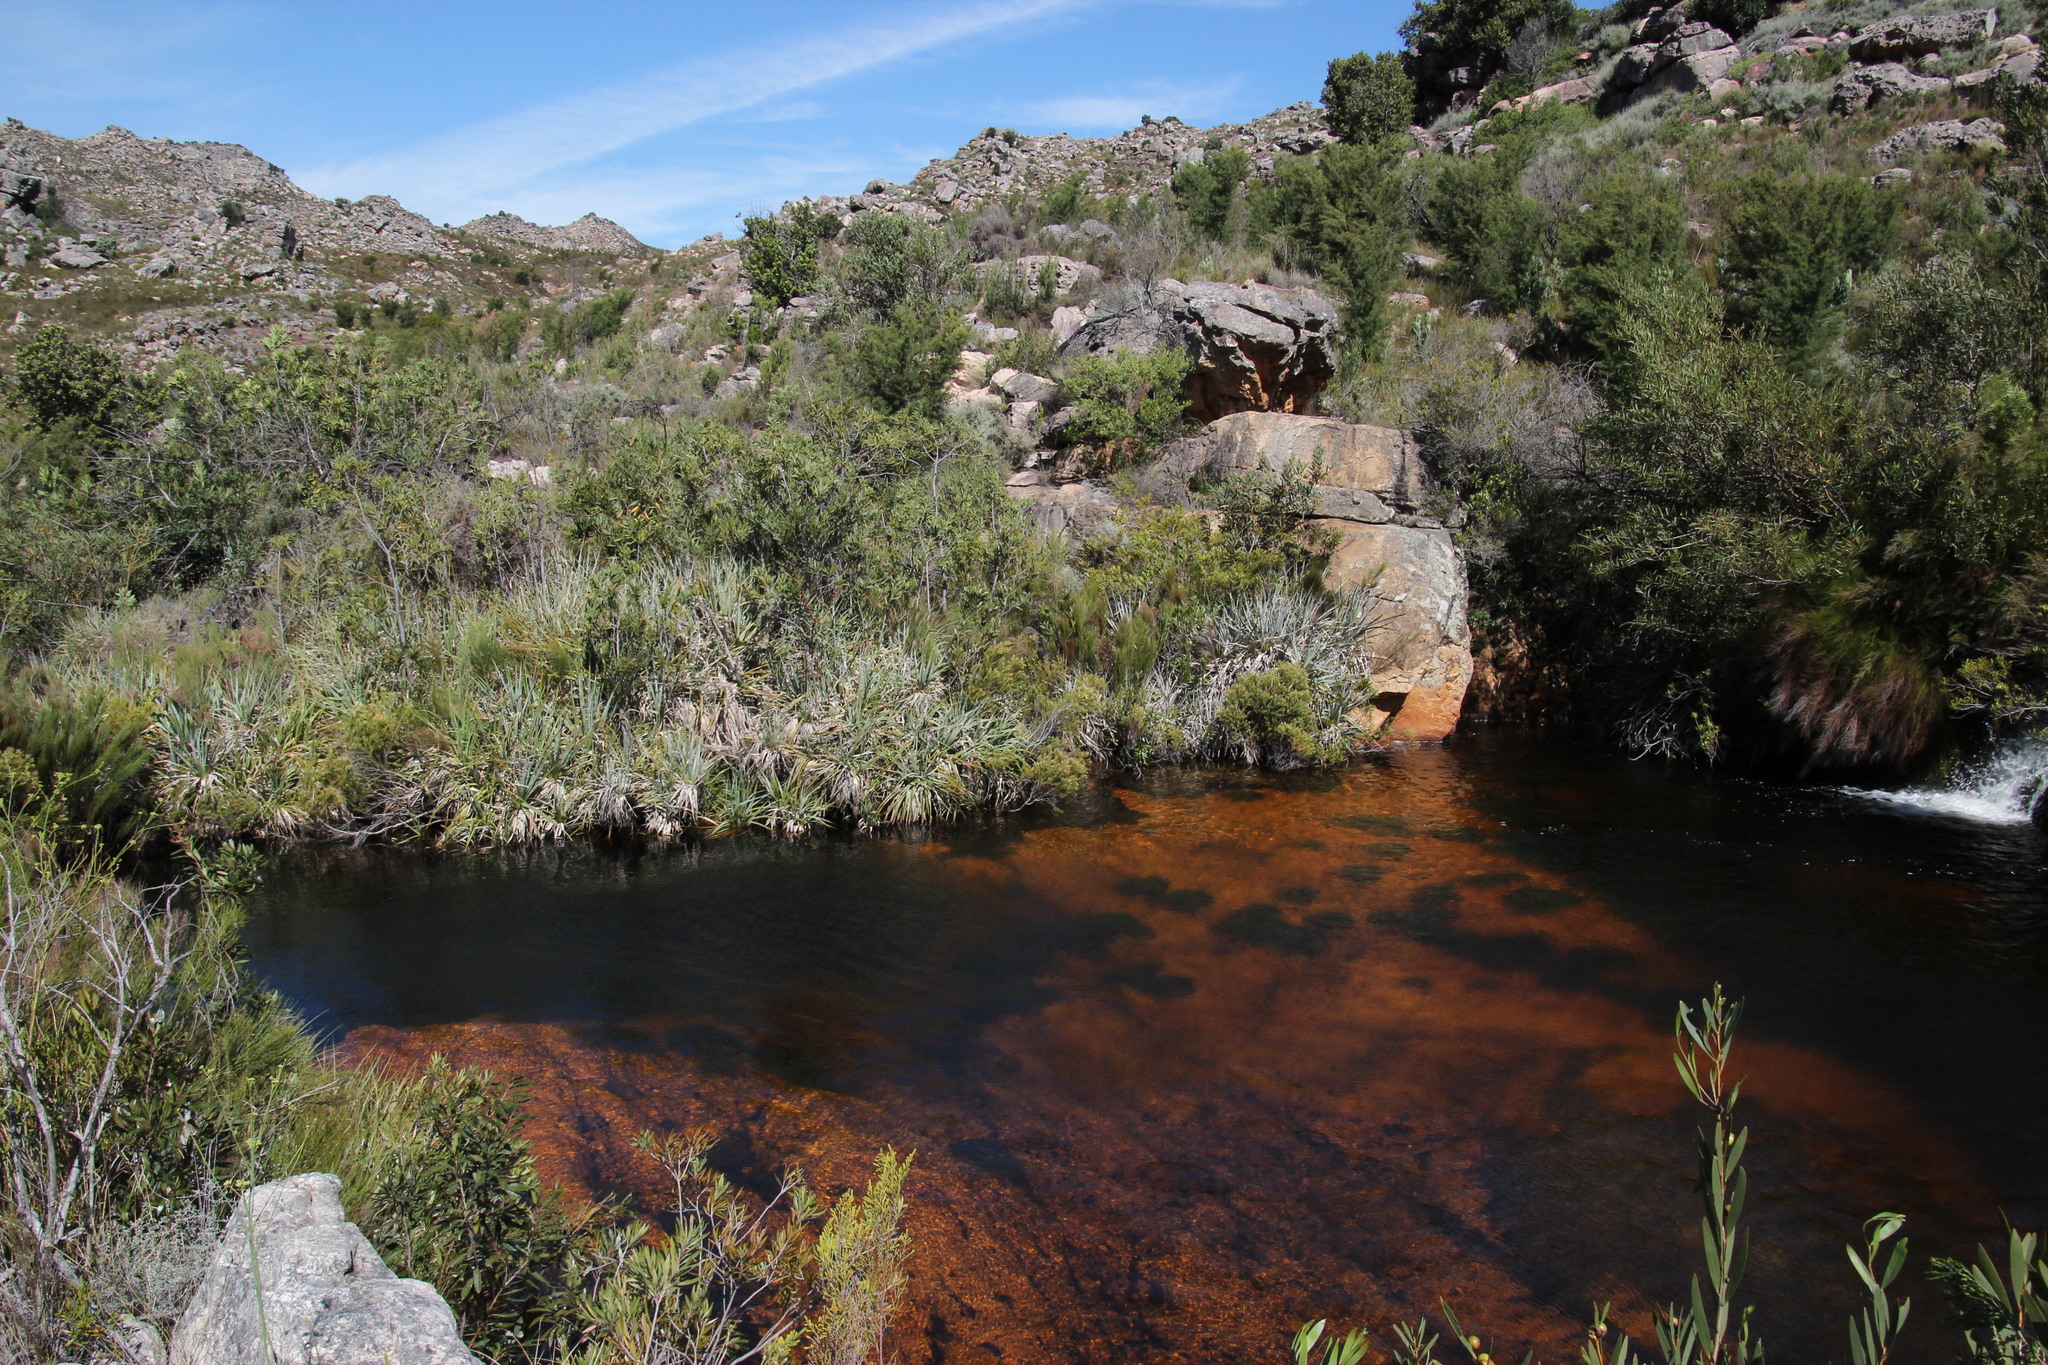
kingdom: Plantae
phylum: Tracheophyta
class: Liliopsida
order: Poales
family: Thurniaceae
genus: Prionium
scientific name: Prionium serratum
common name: Palmiet
